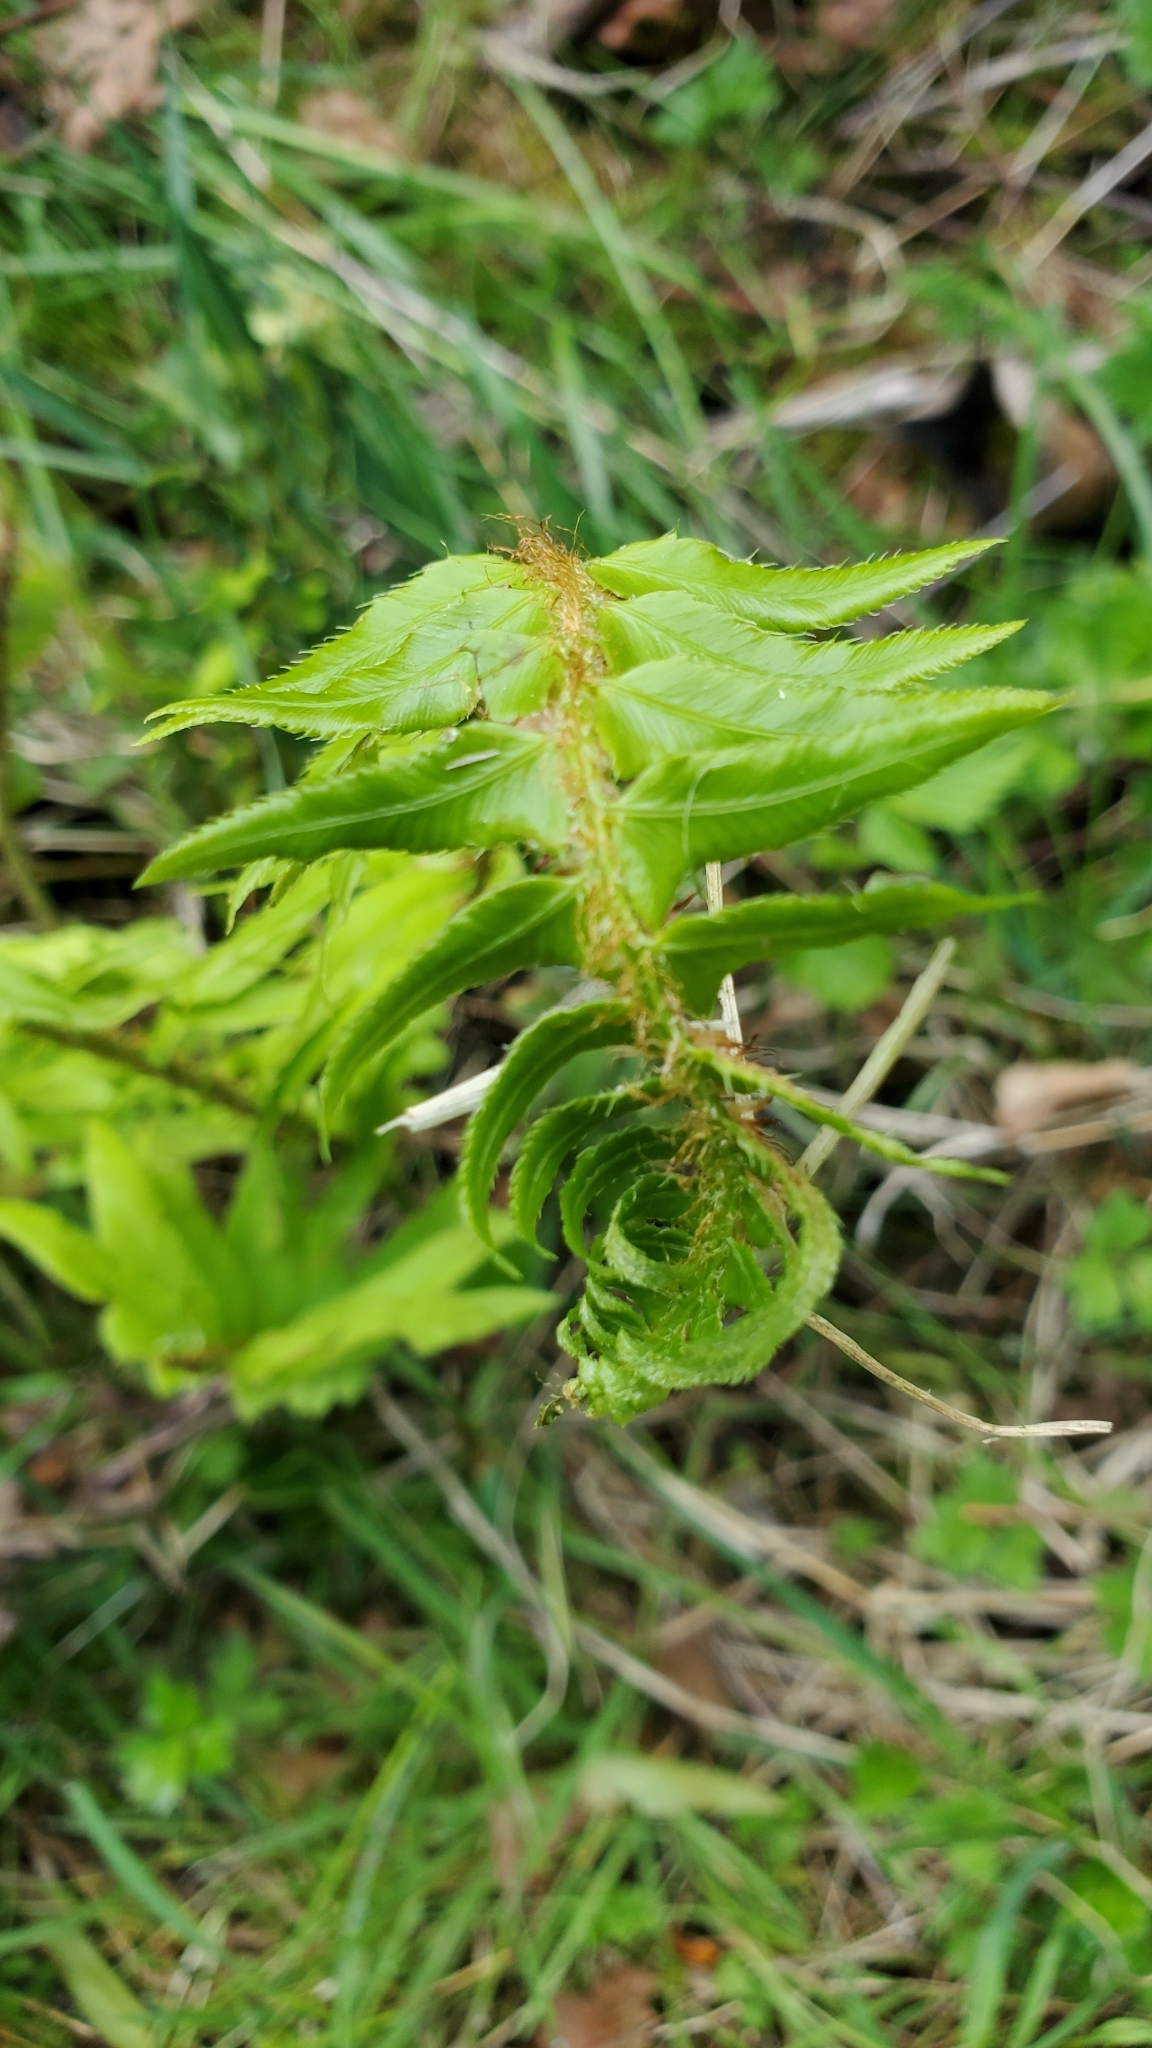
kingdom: Plantae
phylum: Tracheophyta
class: Polypodiopsida
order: Polypodiales
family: Dryopteridaceae
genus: Polystichum
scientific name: Polystichum munitum
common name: Western sword-fern
